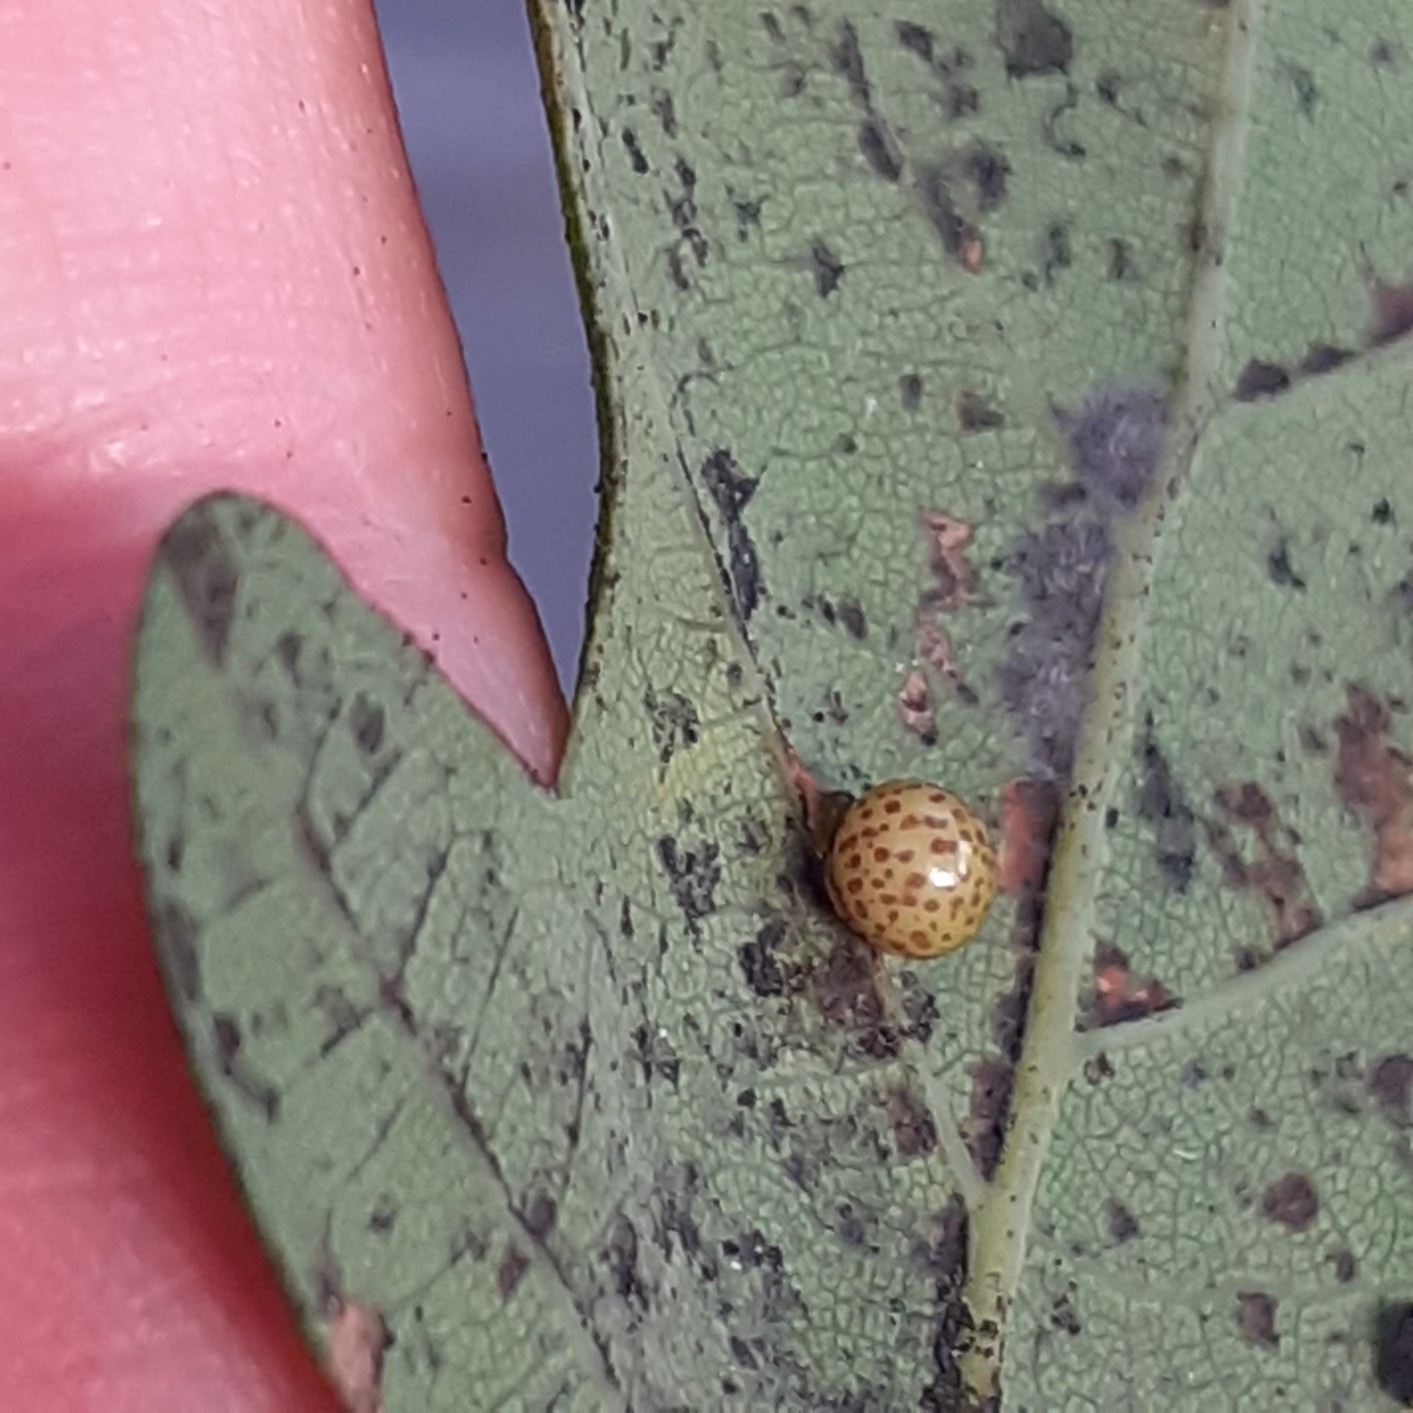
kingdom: Animalia
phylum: Arthropoda
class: Insecta
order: Hymenoptera
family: Cynipidae
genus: Neuroterus
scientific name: Neuroterus anthracinus
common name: Oyster gall
